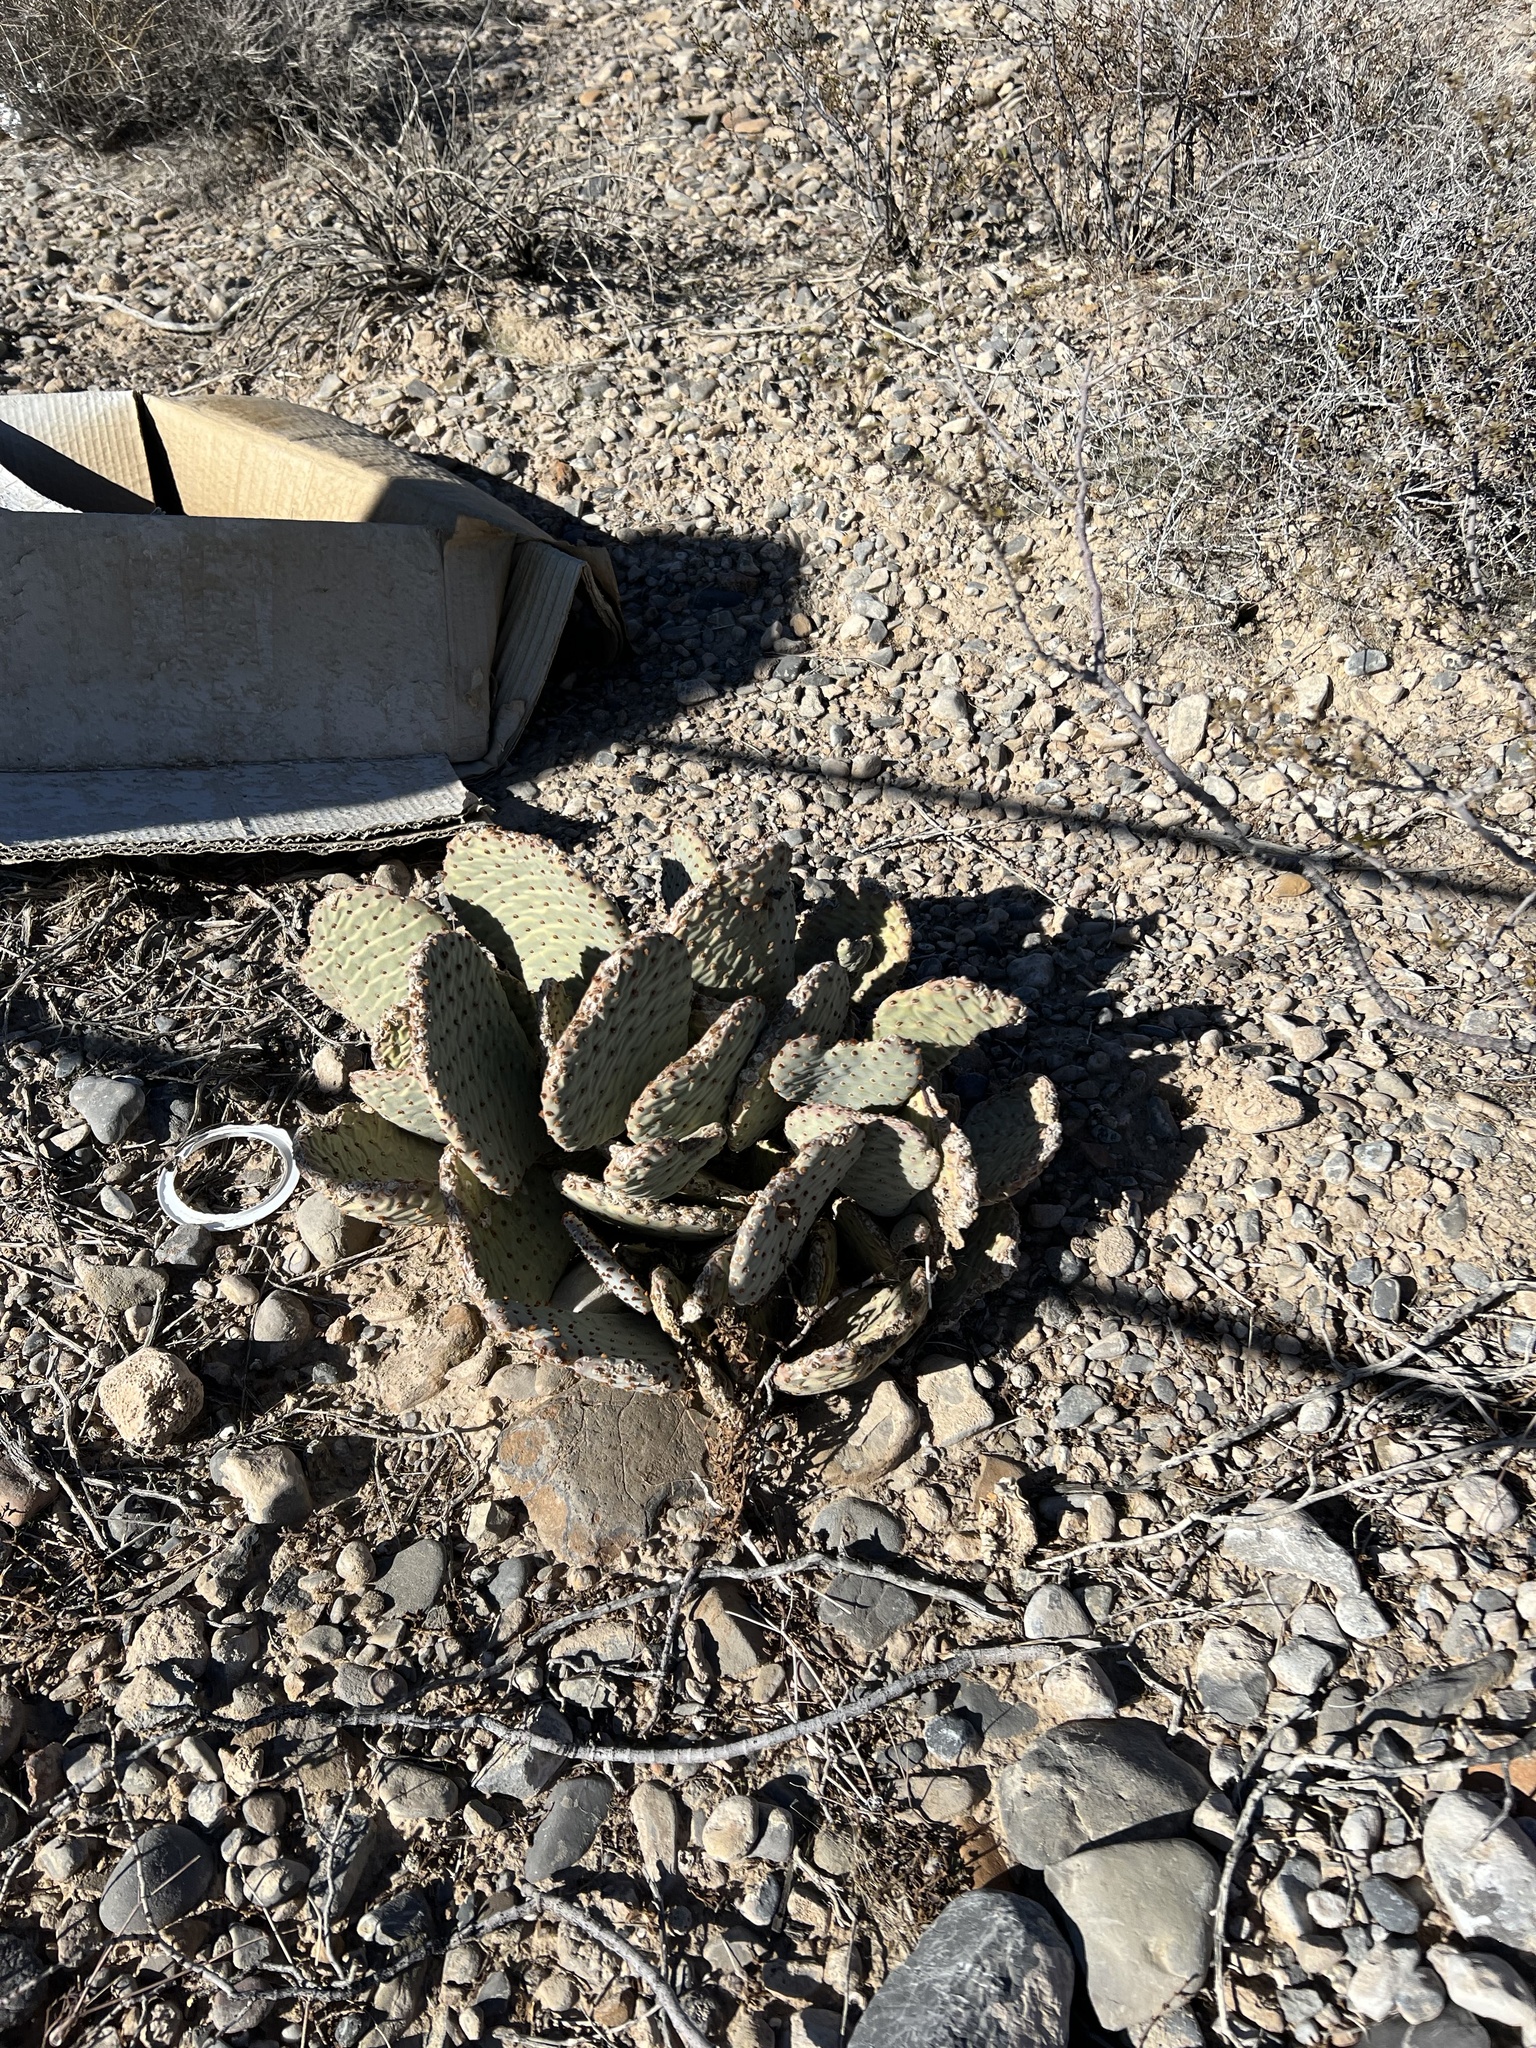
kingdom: Plantae
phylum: Tracheophyta
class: Magnoliopsida
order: Caryophyllales
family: Cactaceae
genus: Opuntia
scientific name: Opuntia basilaris
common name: Beavertail prickly-pear
